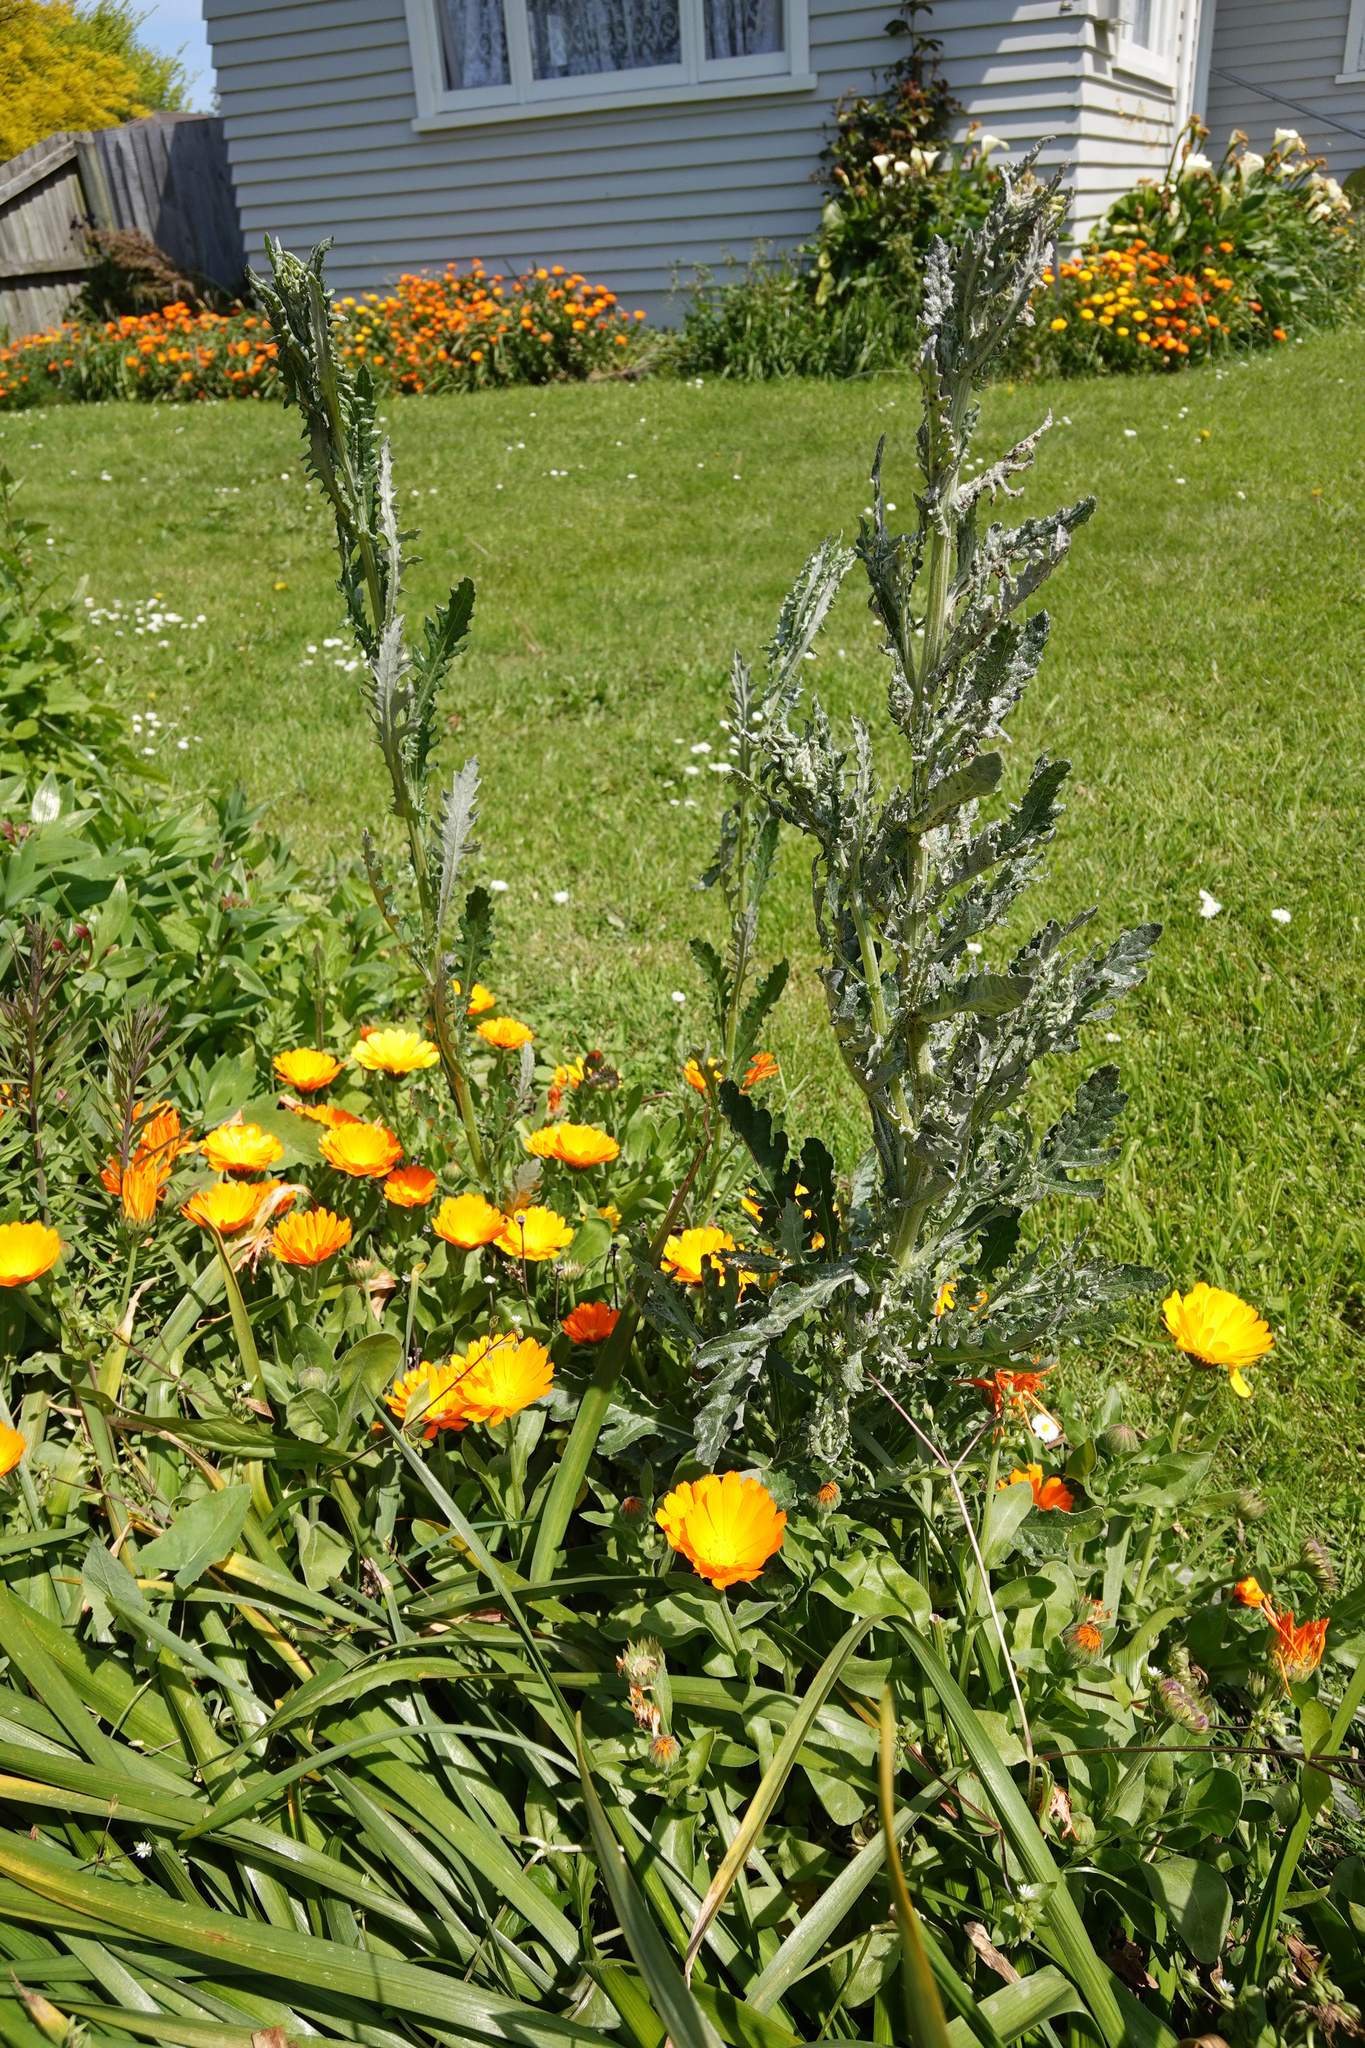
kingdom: Plantae
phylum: Tracheophyta
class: Magnoliopsida
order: Asterales
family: Asteraceae
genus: Senecio
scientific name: Senecio glomeratus
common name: Cutleaf burnweed
